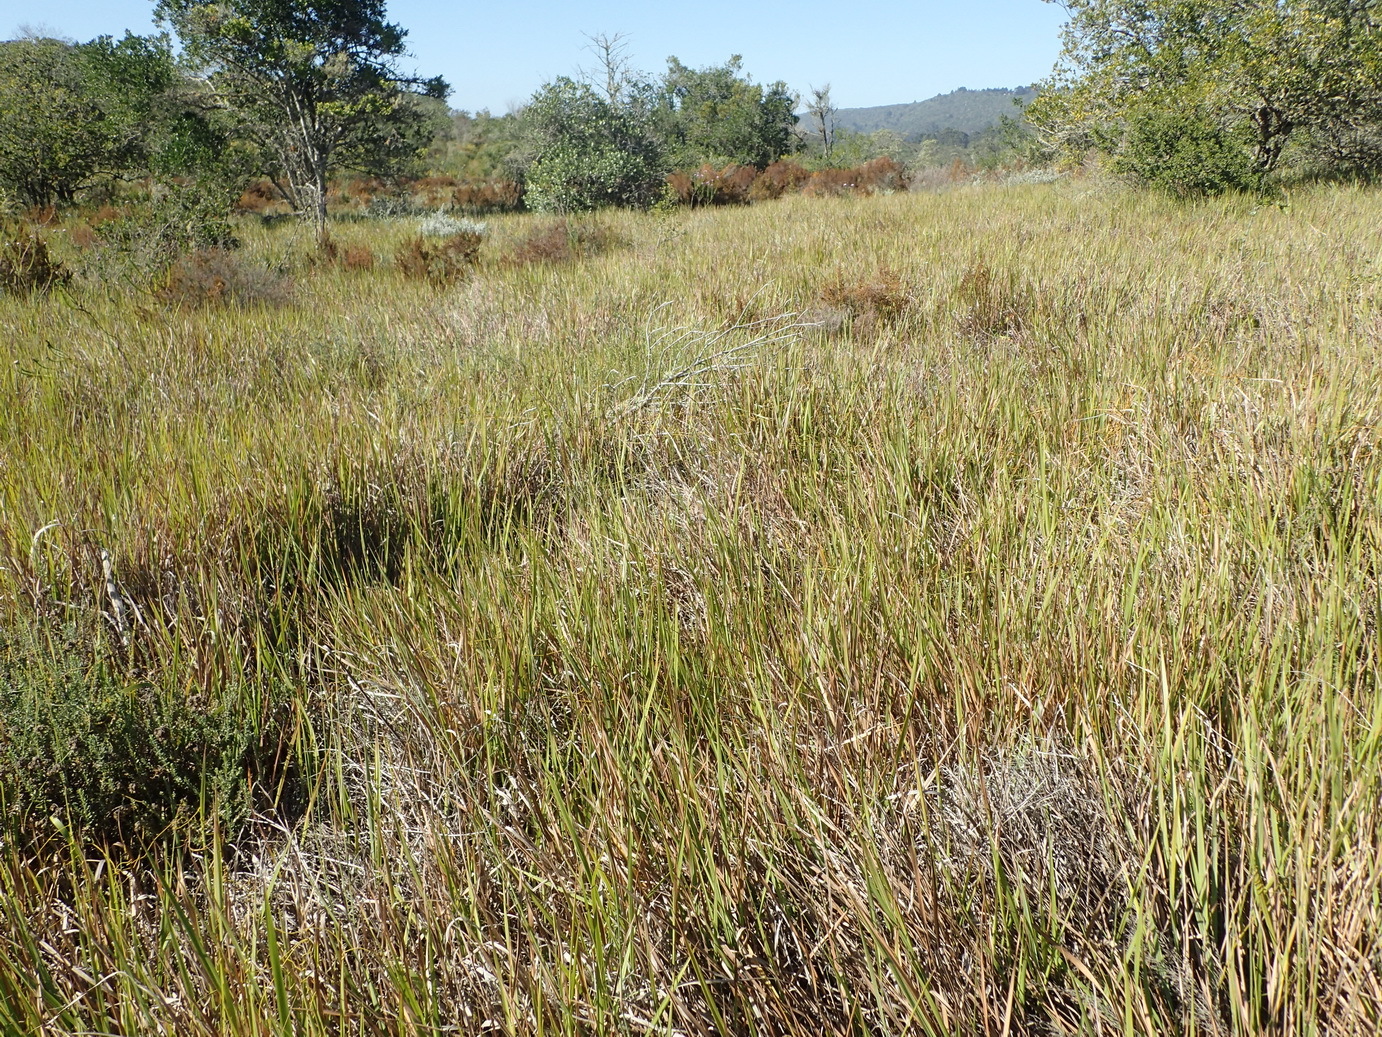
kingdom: Plantae
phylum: Tracheophyta
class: Liliopsida
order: Poales
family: Poaceae
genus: Imperata
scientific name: Imperata cylindrica
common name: Cogongrass
